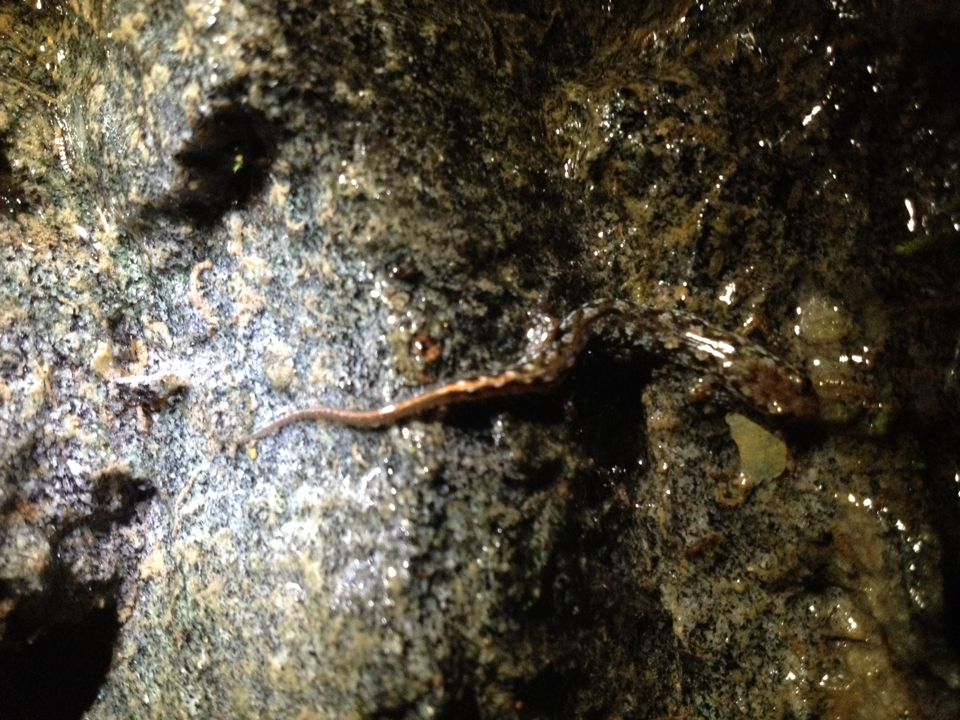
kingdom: Animalia
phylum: Chordata
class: Amphibia
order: Caudata
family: Plethodontidae
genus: Desmognathus
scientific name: Desmognathus monticola
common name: Seal salamander
